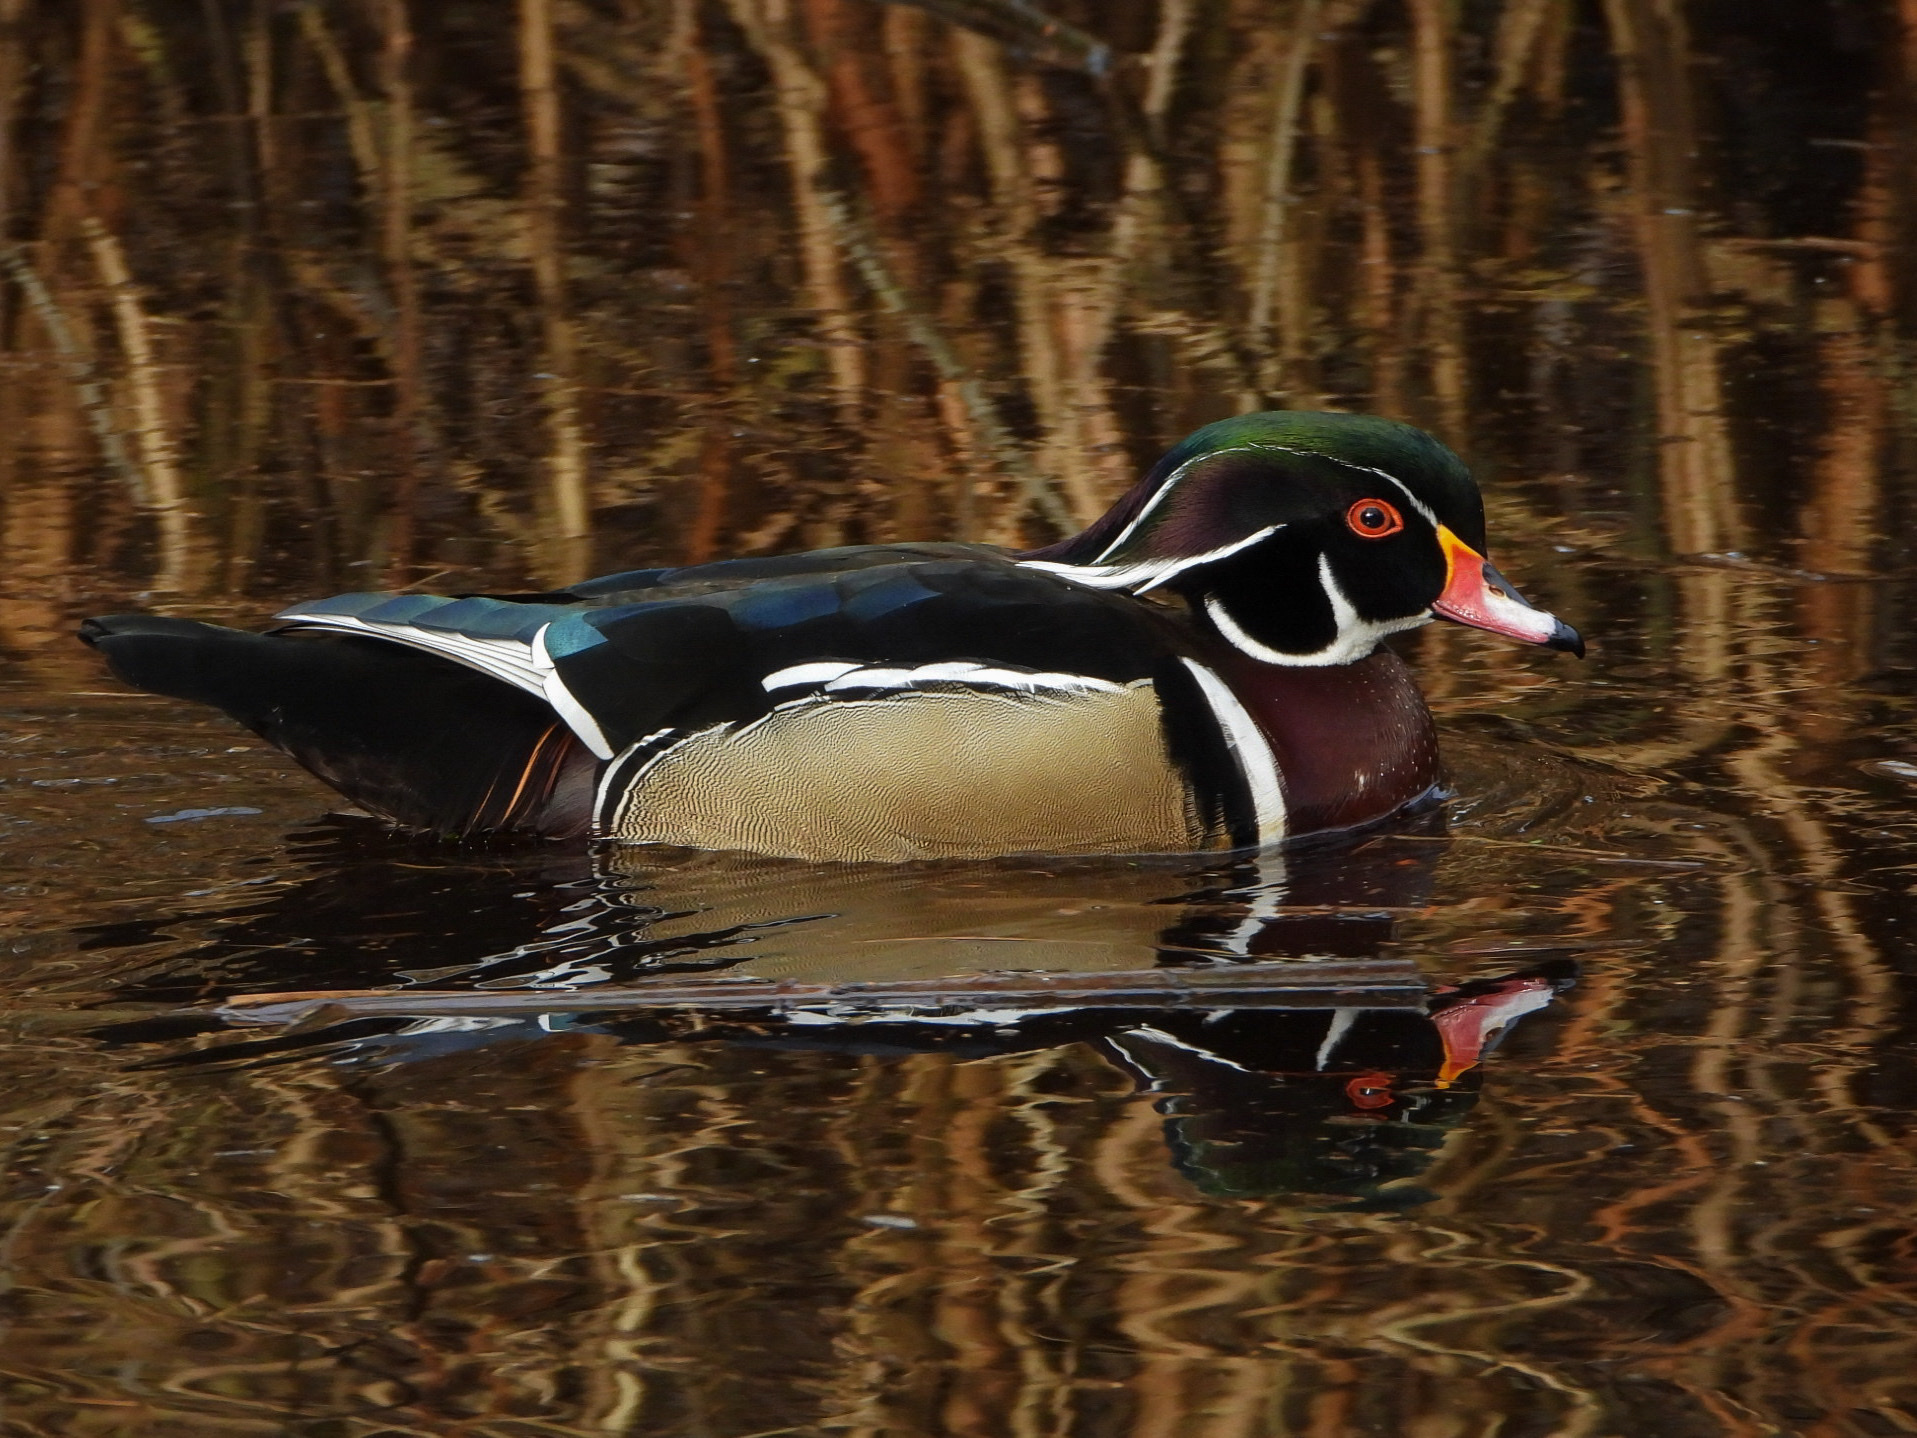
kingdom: Animalia
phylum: Chordata
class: Aves
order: Anseriformes
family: Anatidae
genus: Aix
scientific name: Aix sponsa
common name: Wood duck
